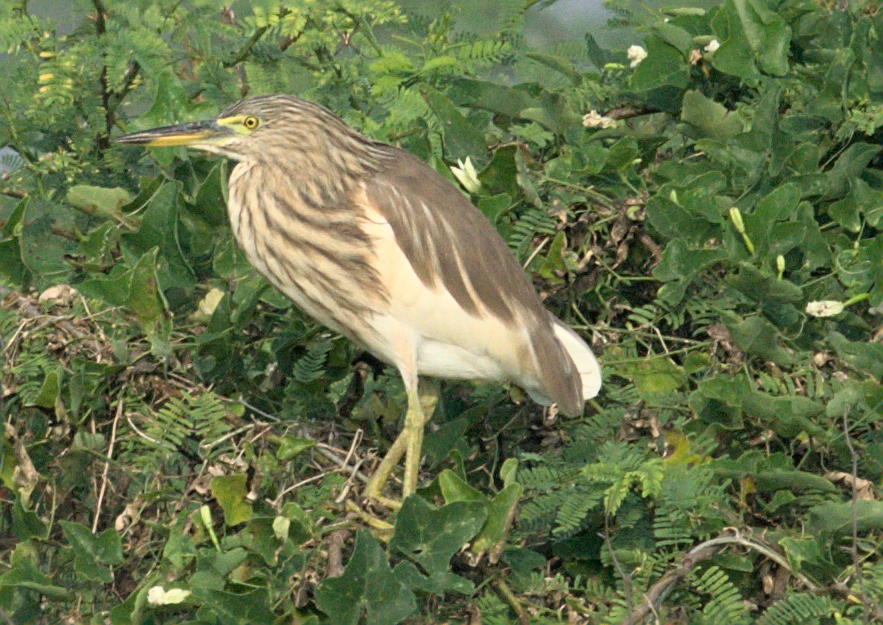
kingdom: Animalia
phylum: Chordata
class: Aves
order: Pelecaniformes
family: Ardeidae
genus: Ardeola
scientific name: Ardeola grayii
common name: Indian pond heron
